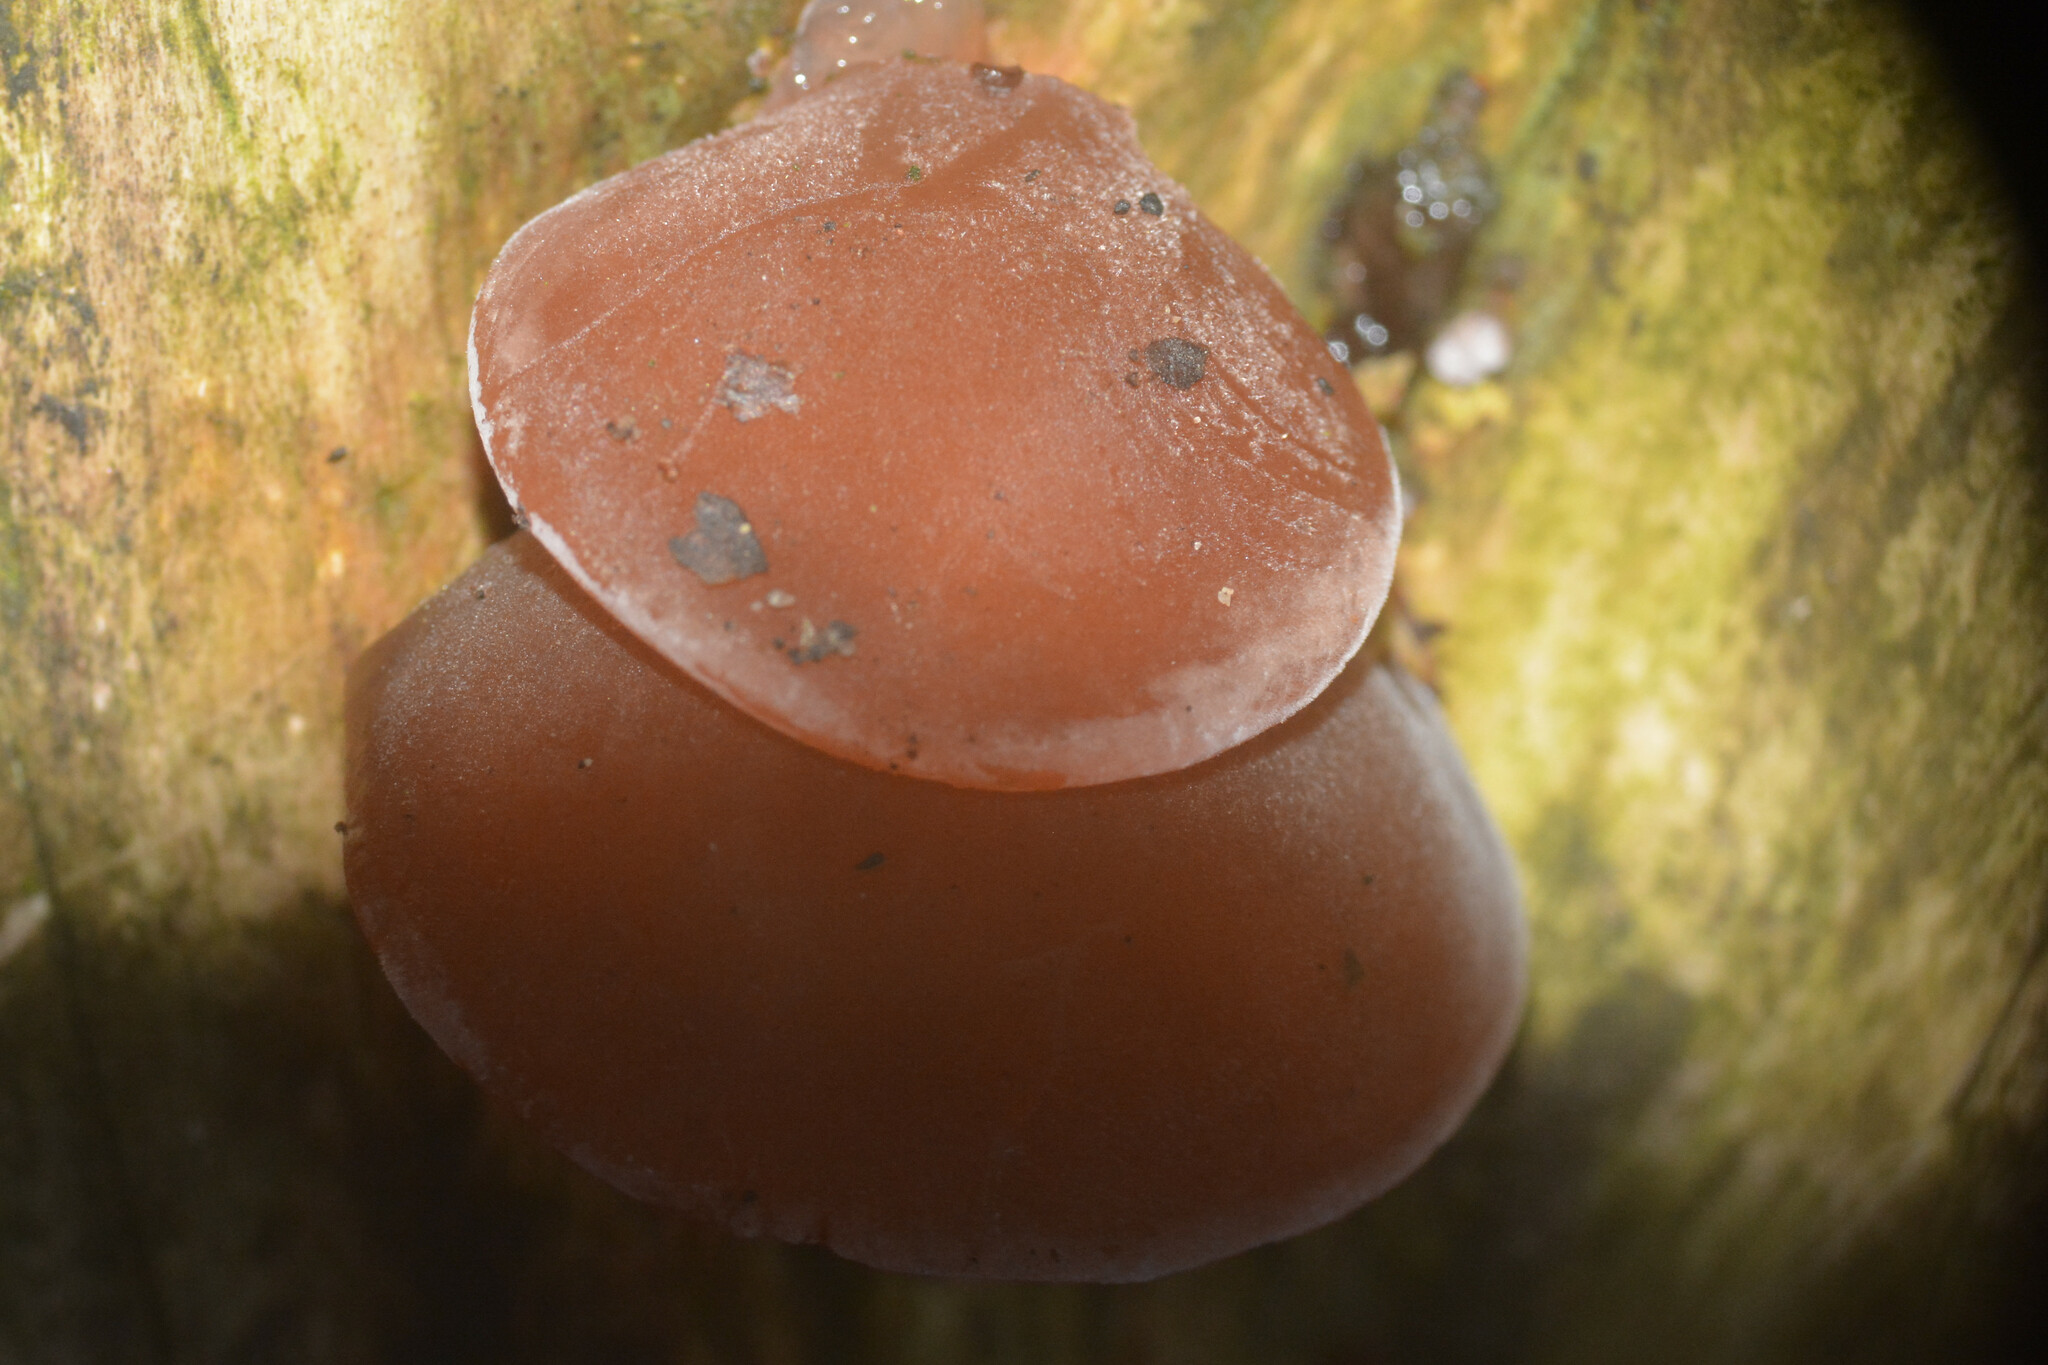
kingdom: Fungi
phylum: Basidiomycota
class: Agaricomycetes
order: Auriculariales
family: Auriculariaceae
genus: Auricularia
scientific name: Auricularia auricula-judae
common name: Jelly ear
